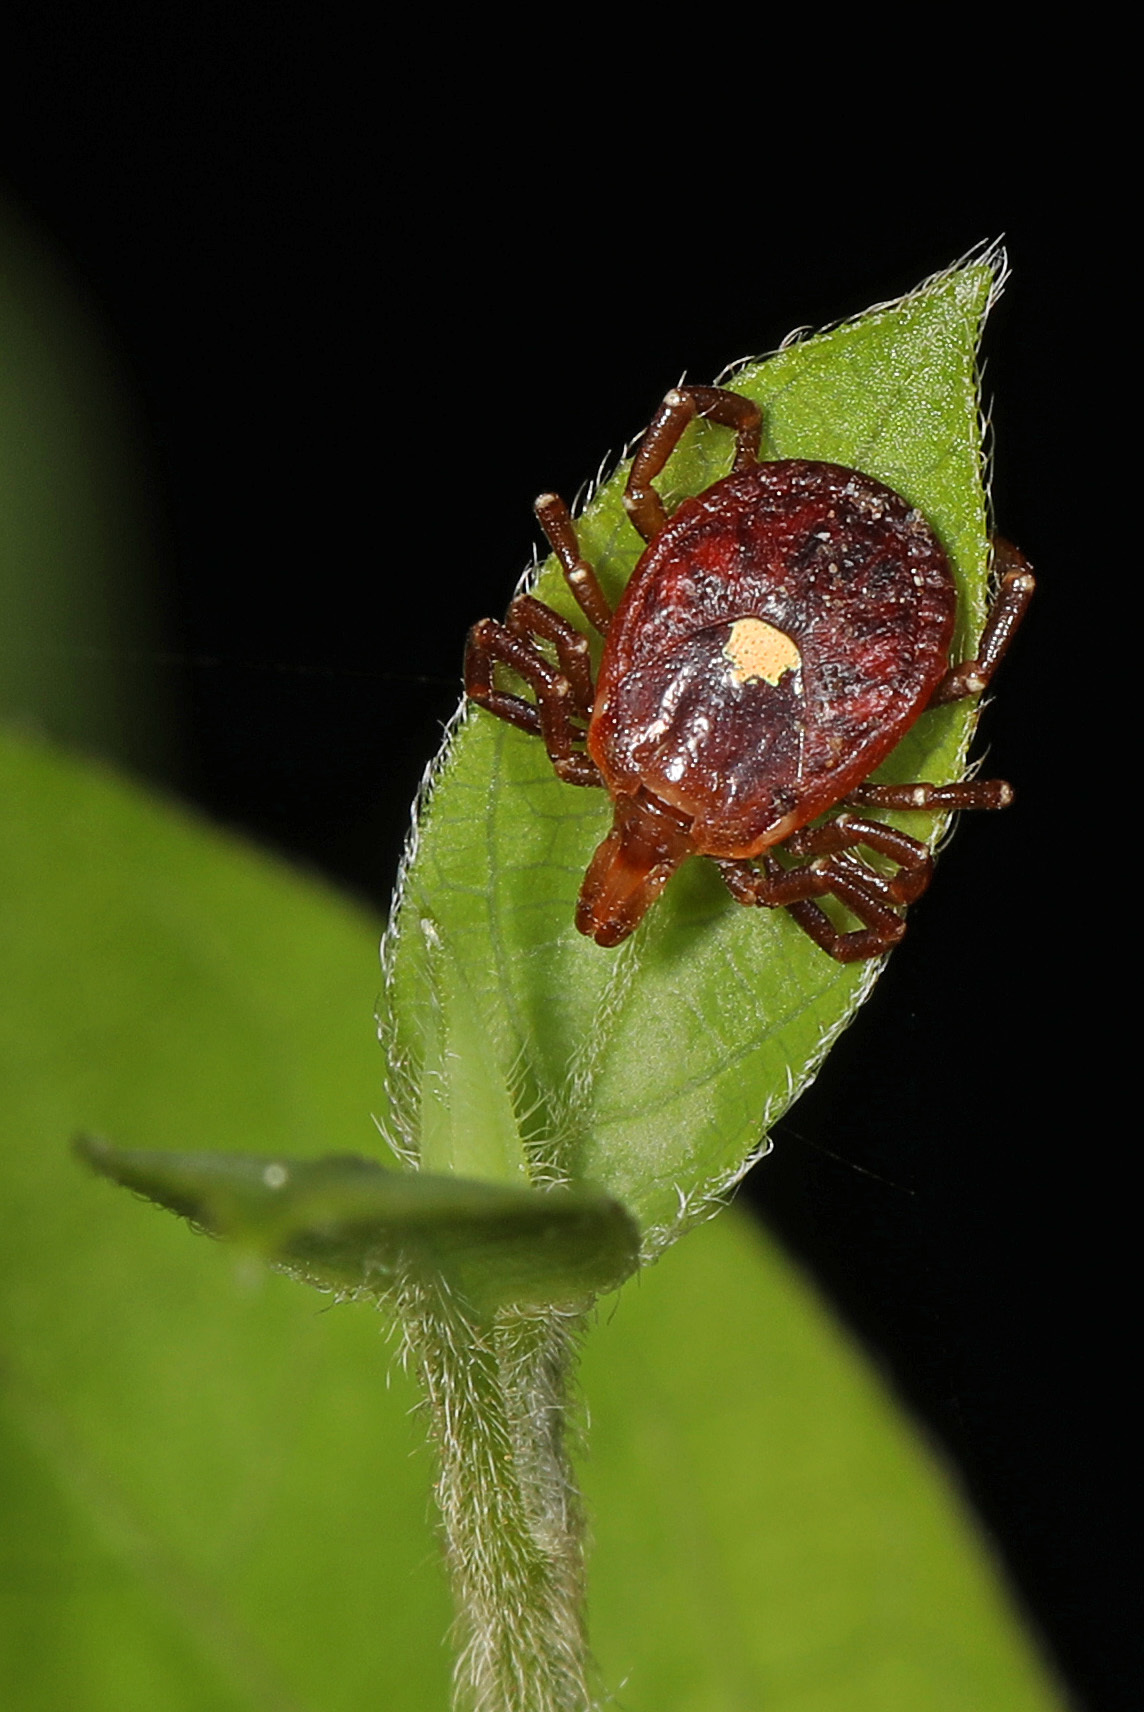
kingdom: Animalia
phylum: Arthropoda
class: Arachnida
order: Ixodida
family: Ixodidae
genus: Amblyomma
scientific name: Amblyomma americanum
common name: Lone star tick
